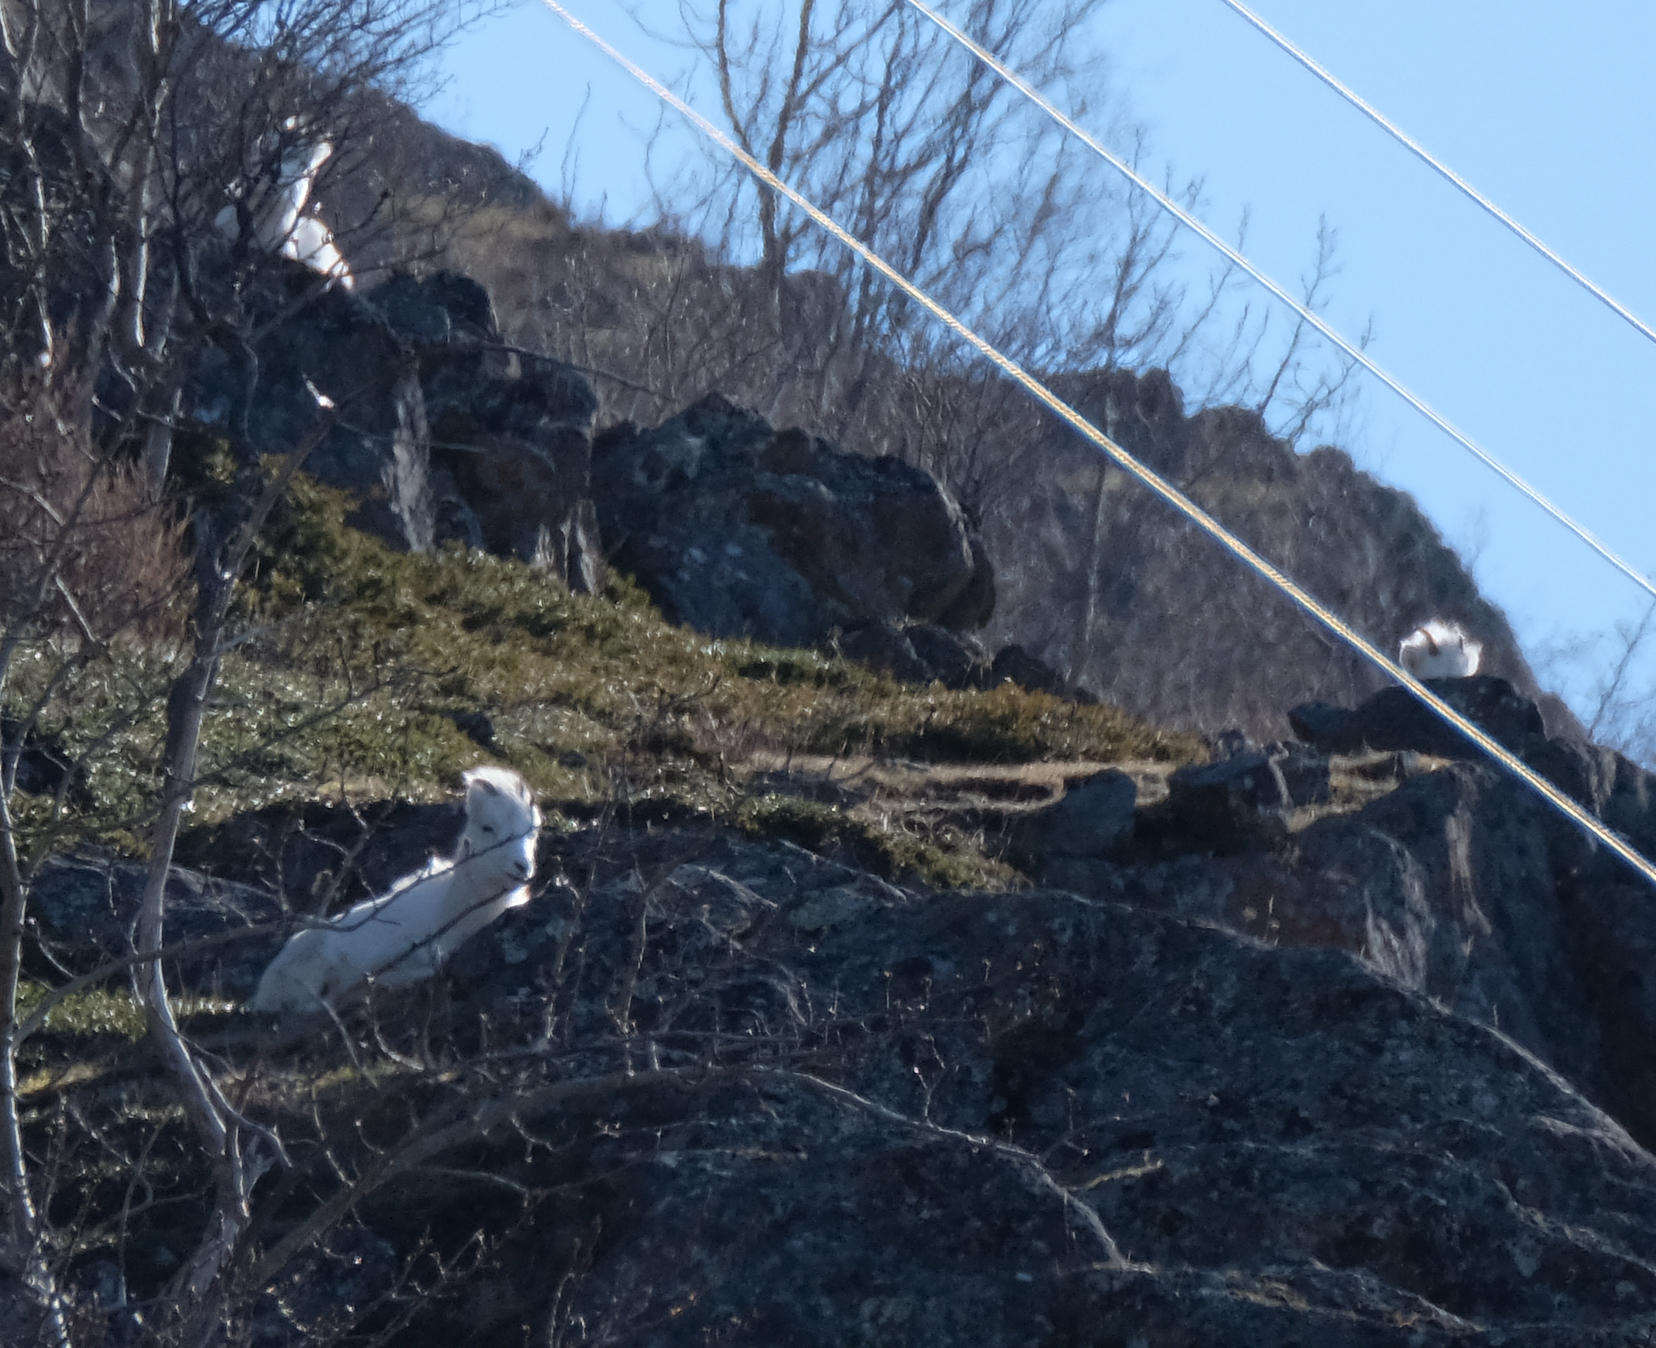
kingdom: Animalia
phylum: Chordata
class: Mammalia
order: Artiodactyla
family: Bovidae
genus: Ovis
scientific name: Ovis dalli
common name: Dall's sheep
